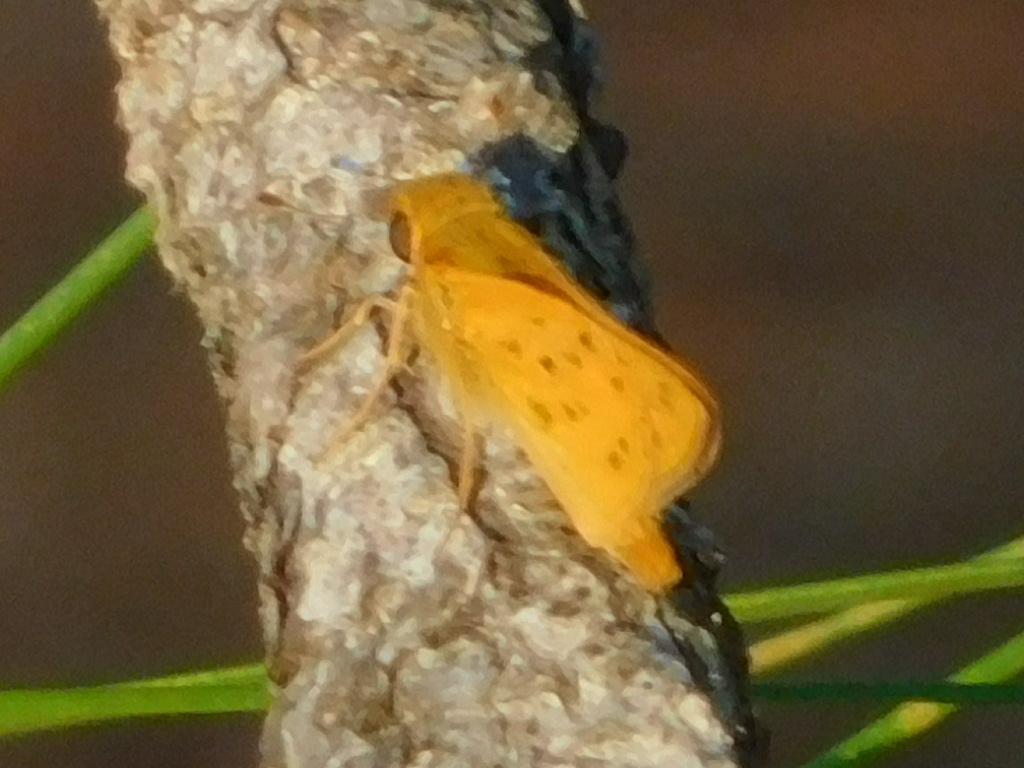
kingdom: Animalia
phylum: Arthropoda
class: Insecta
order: Lepidoptera
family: Hesperiidae
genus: Hylephila
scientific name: Hylephila phyleus
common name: Fiery skipper
